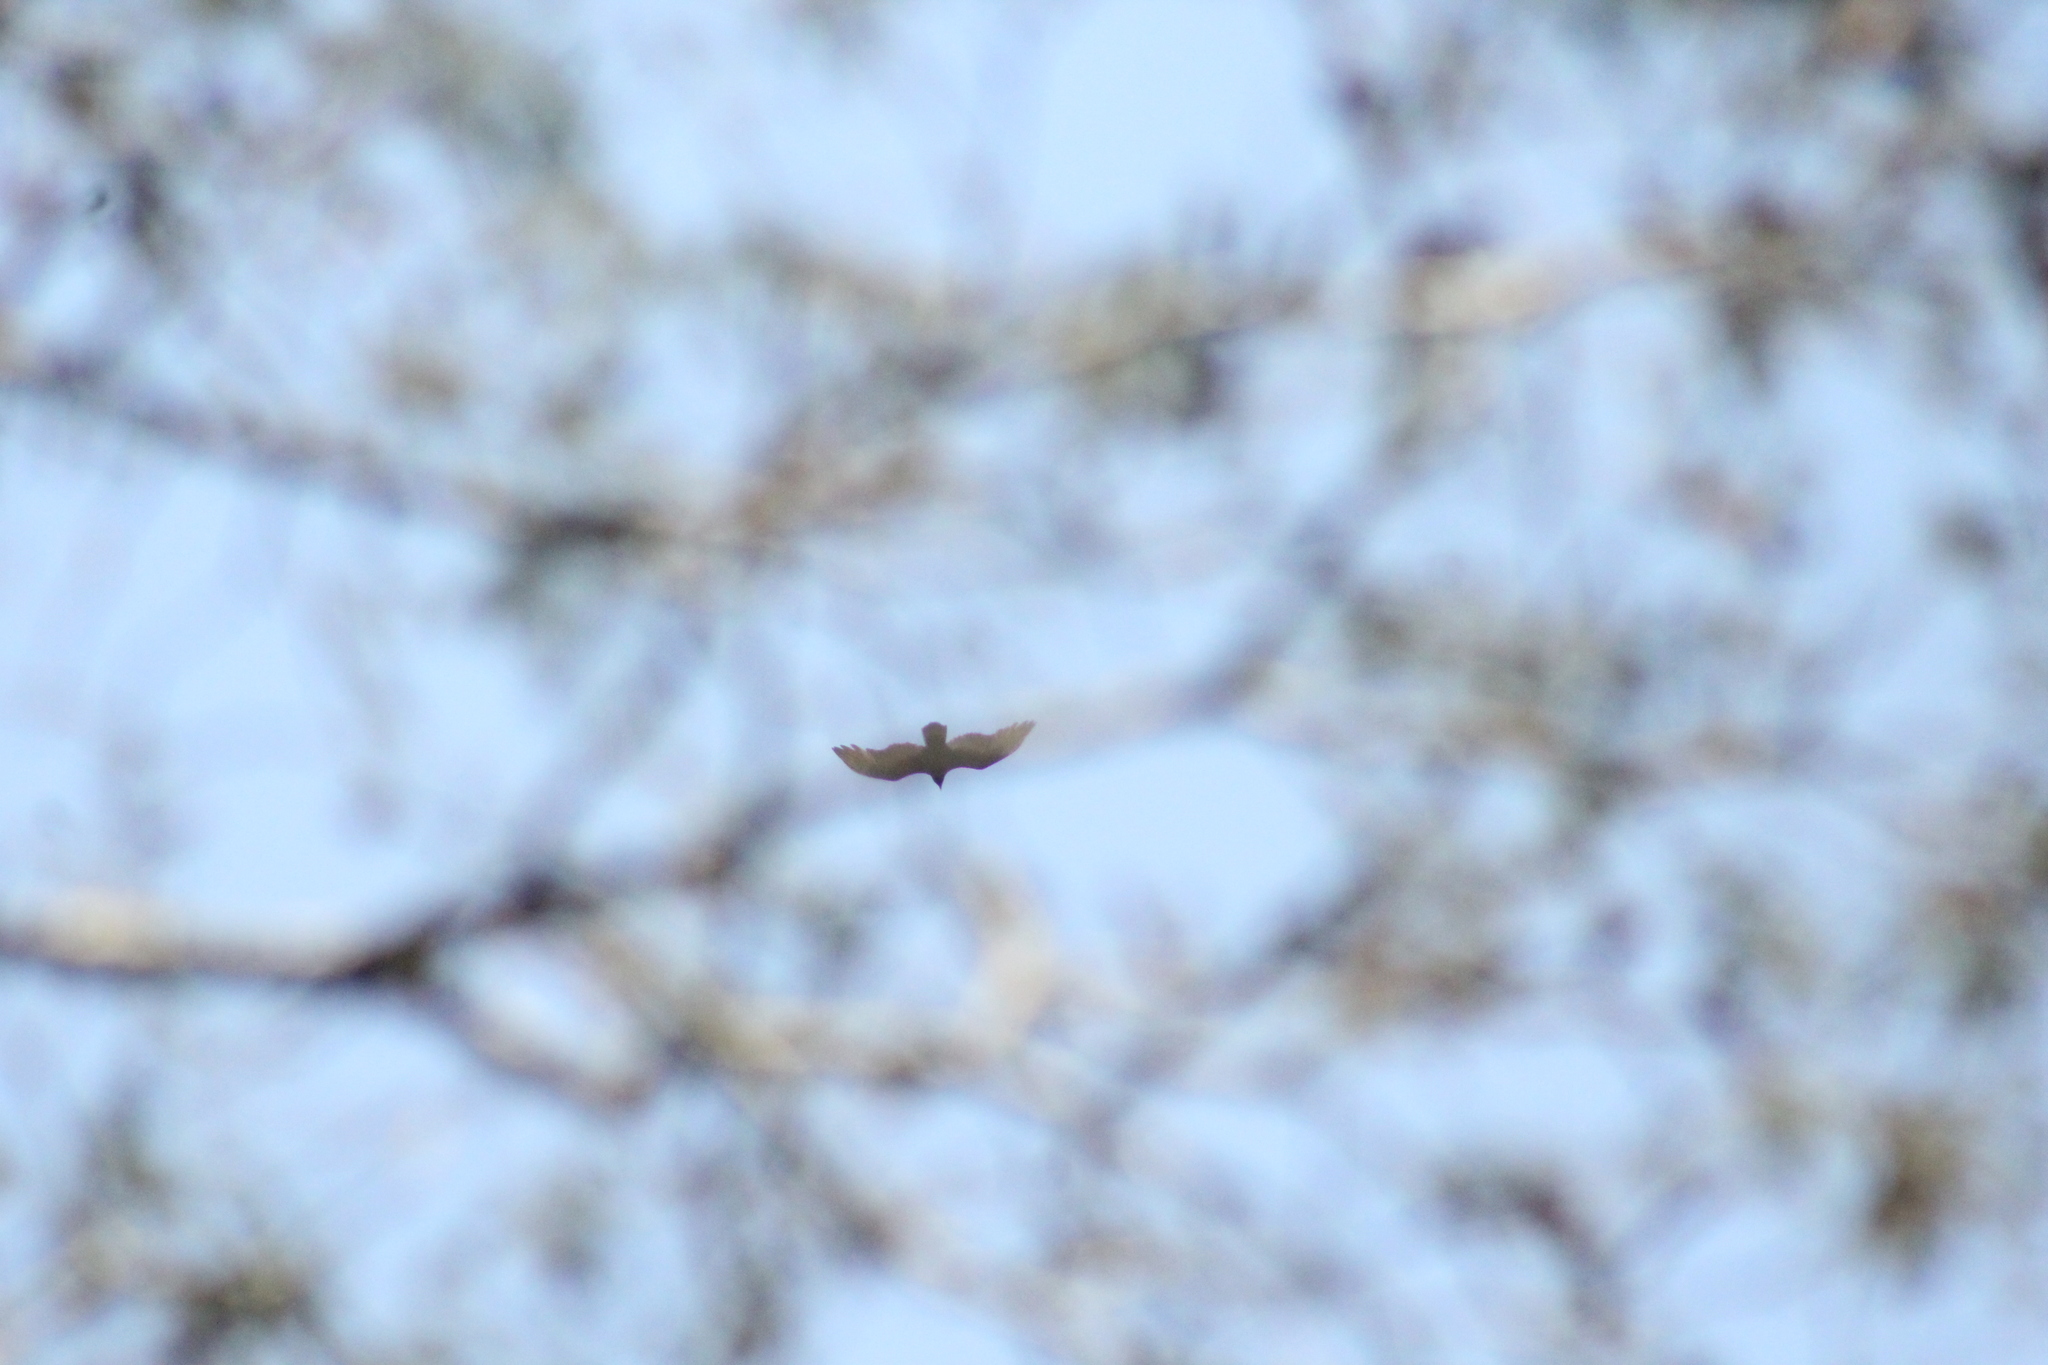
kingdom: Animalia
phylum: Chordata
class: Aves
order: Accipitriformes
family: Cathartidae
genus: Cathartes
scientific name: Cathartes aura
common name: Turkey vulture
